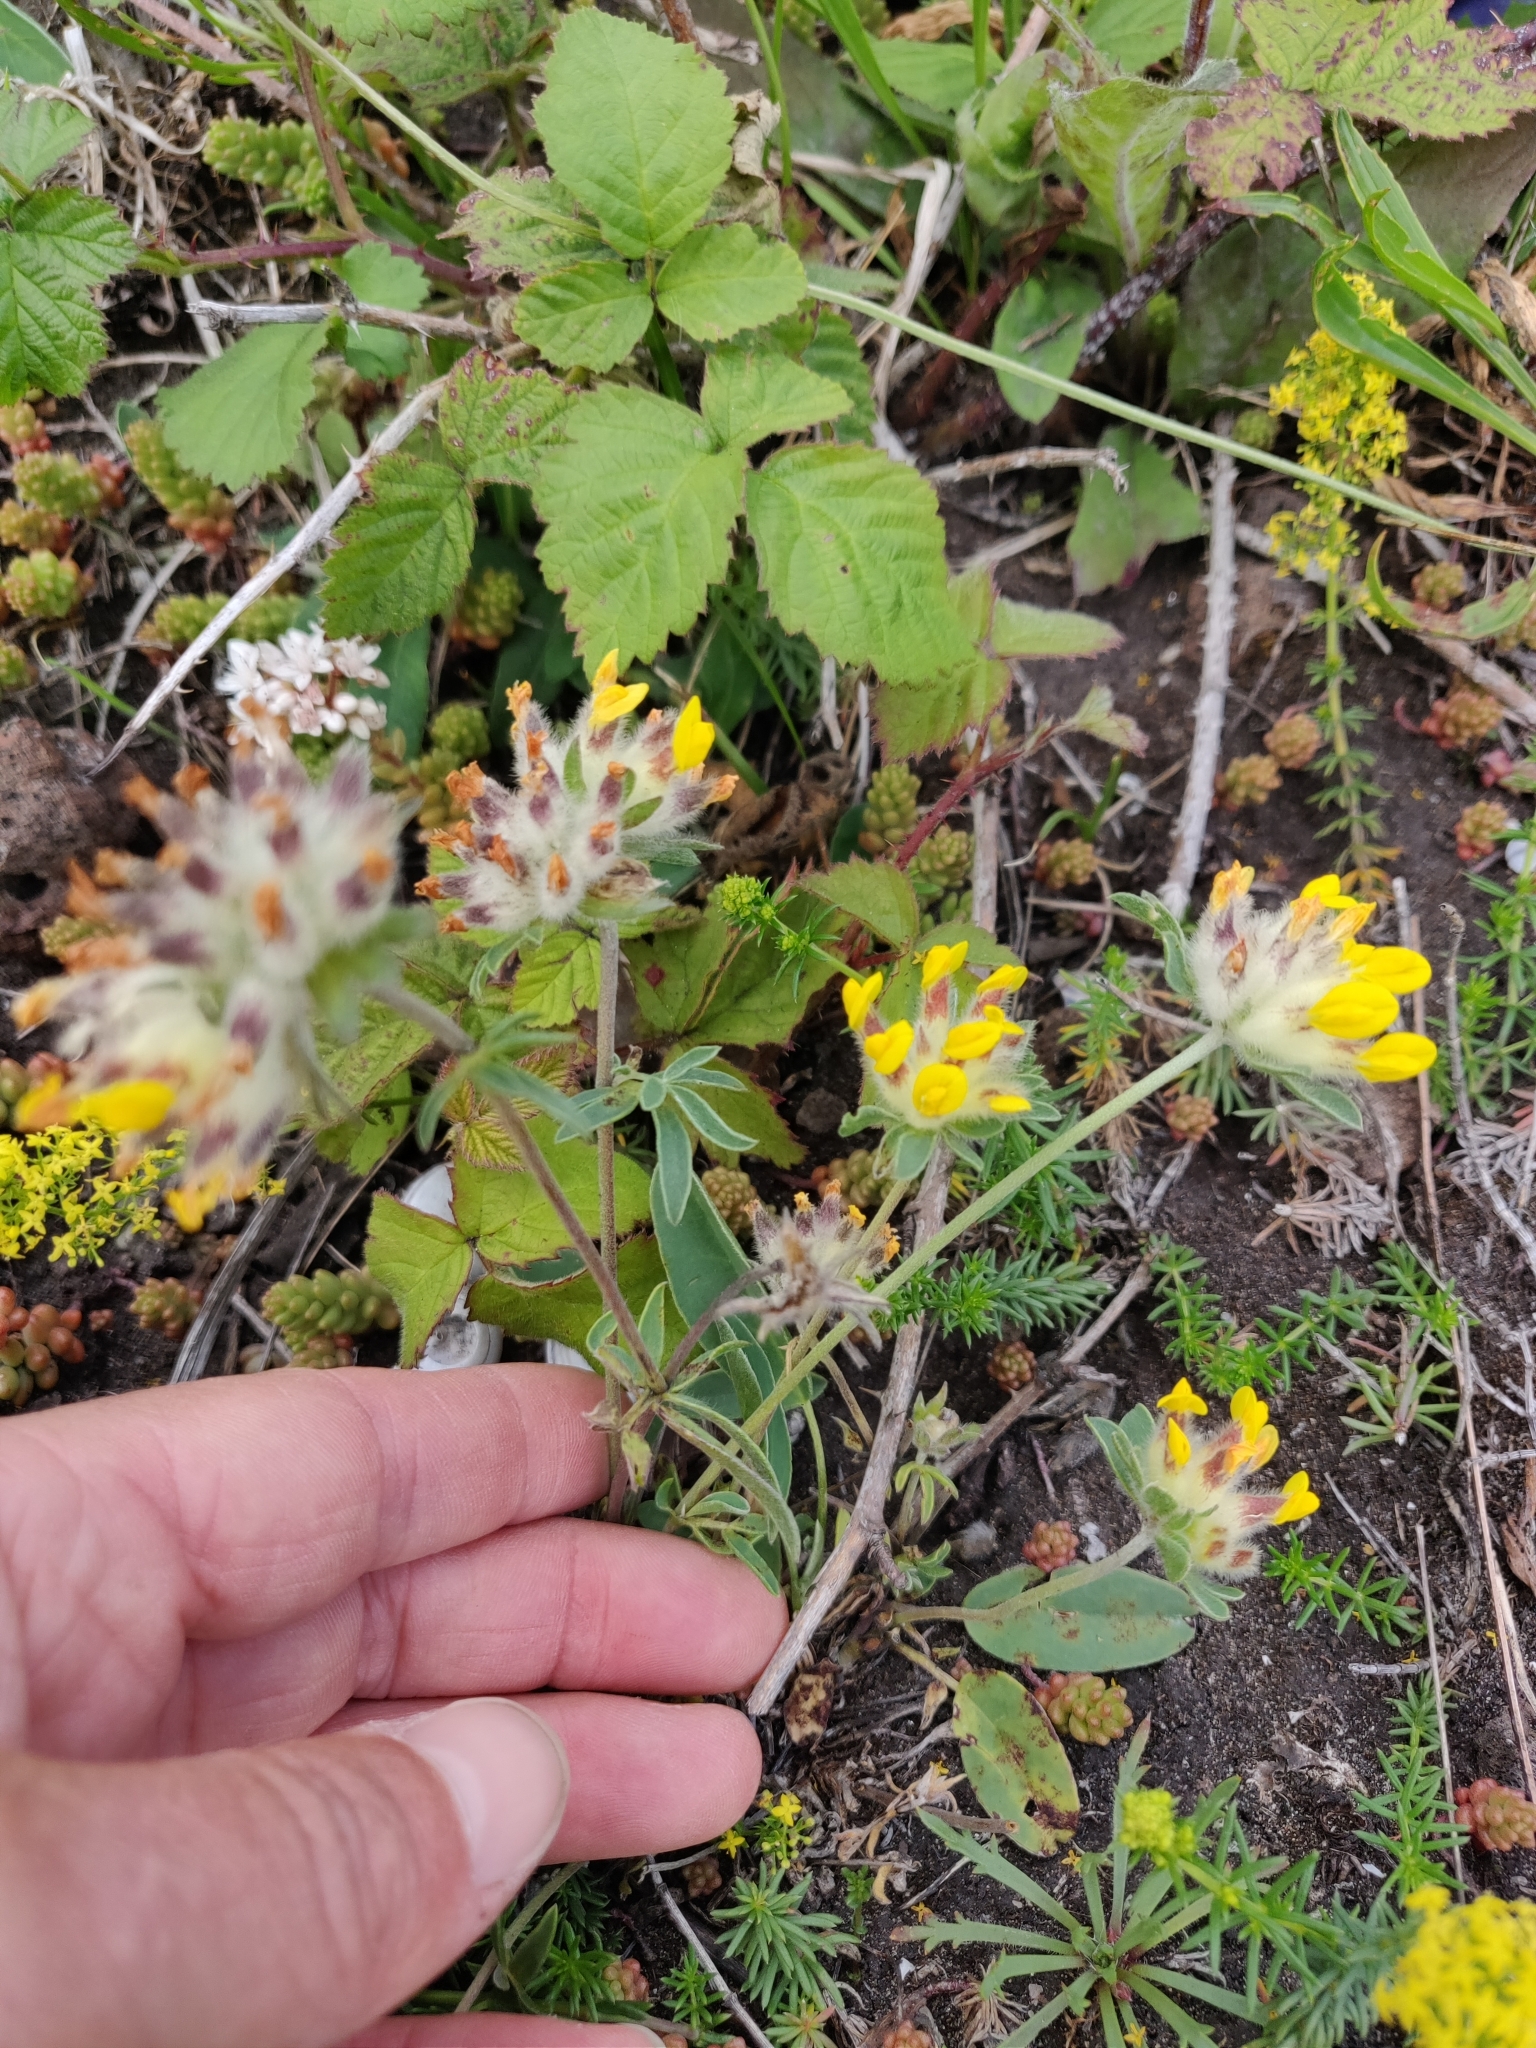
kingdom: Plantae
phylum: Tracheophyta
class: Magnoliopsida
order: Fabales
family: Fabaceae
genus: Anthyllis
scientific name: Anthyllis vulneraria
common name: Kidney vetch
